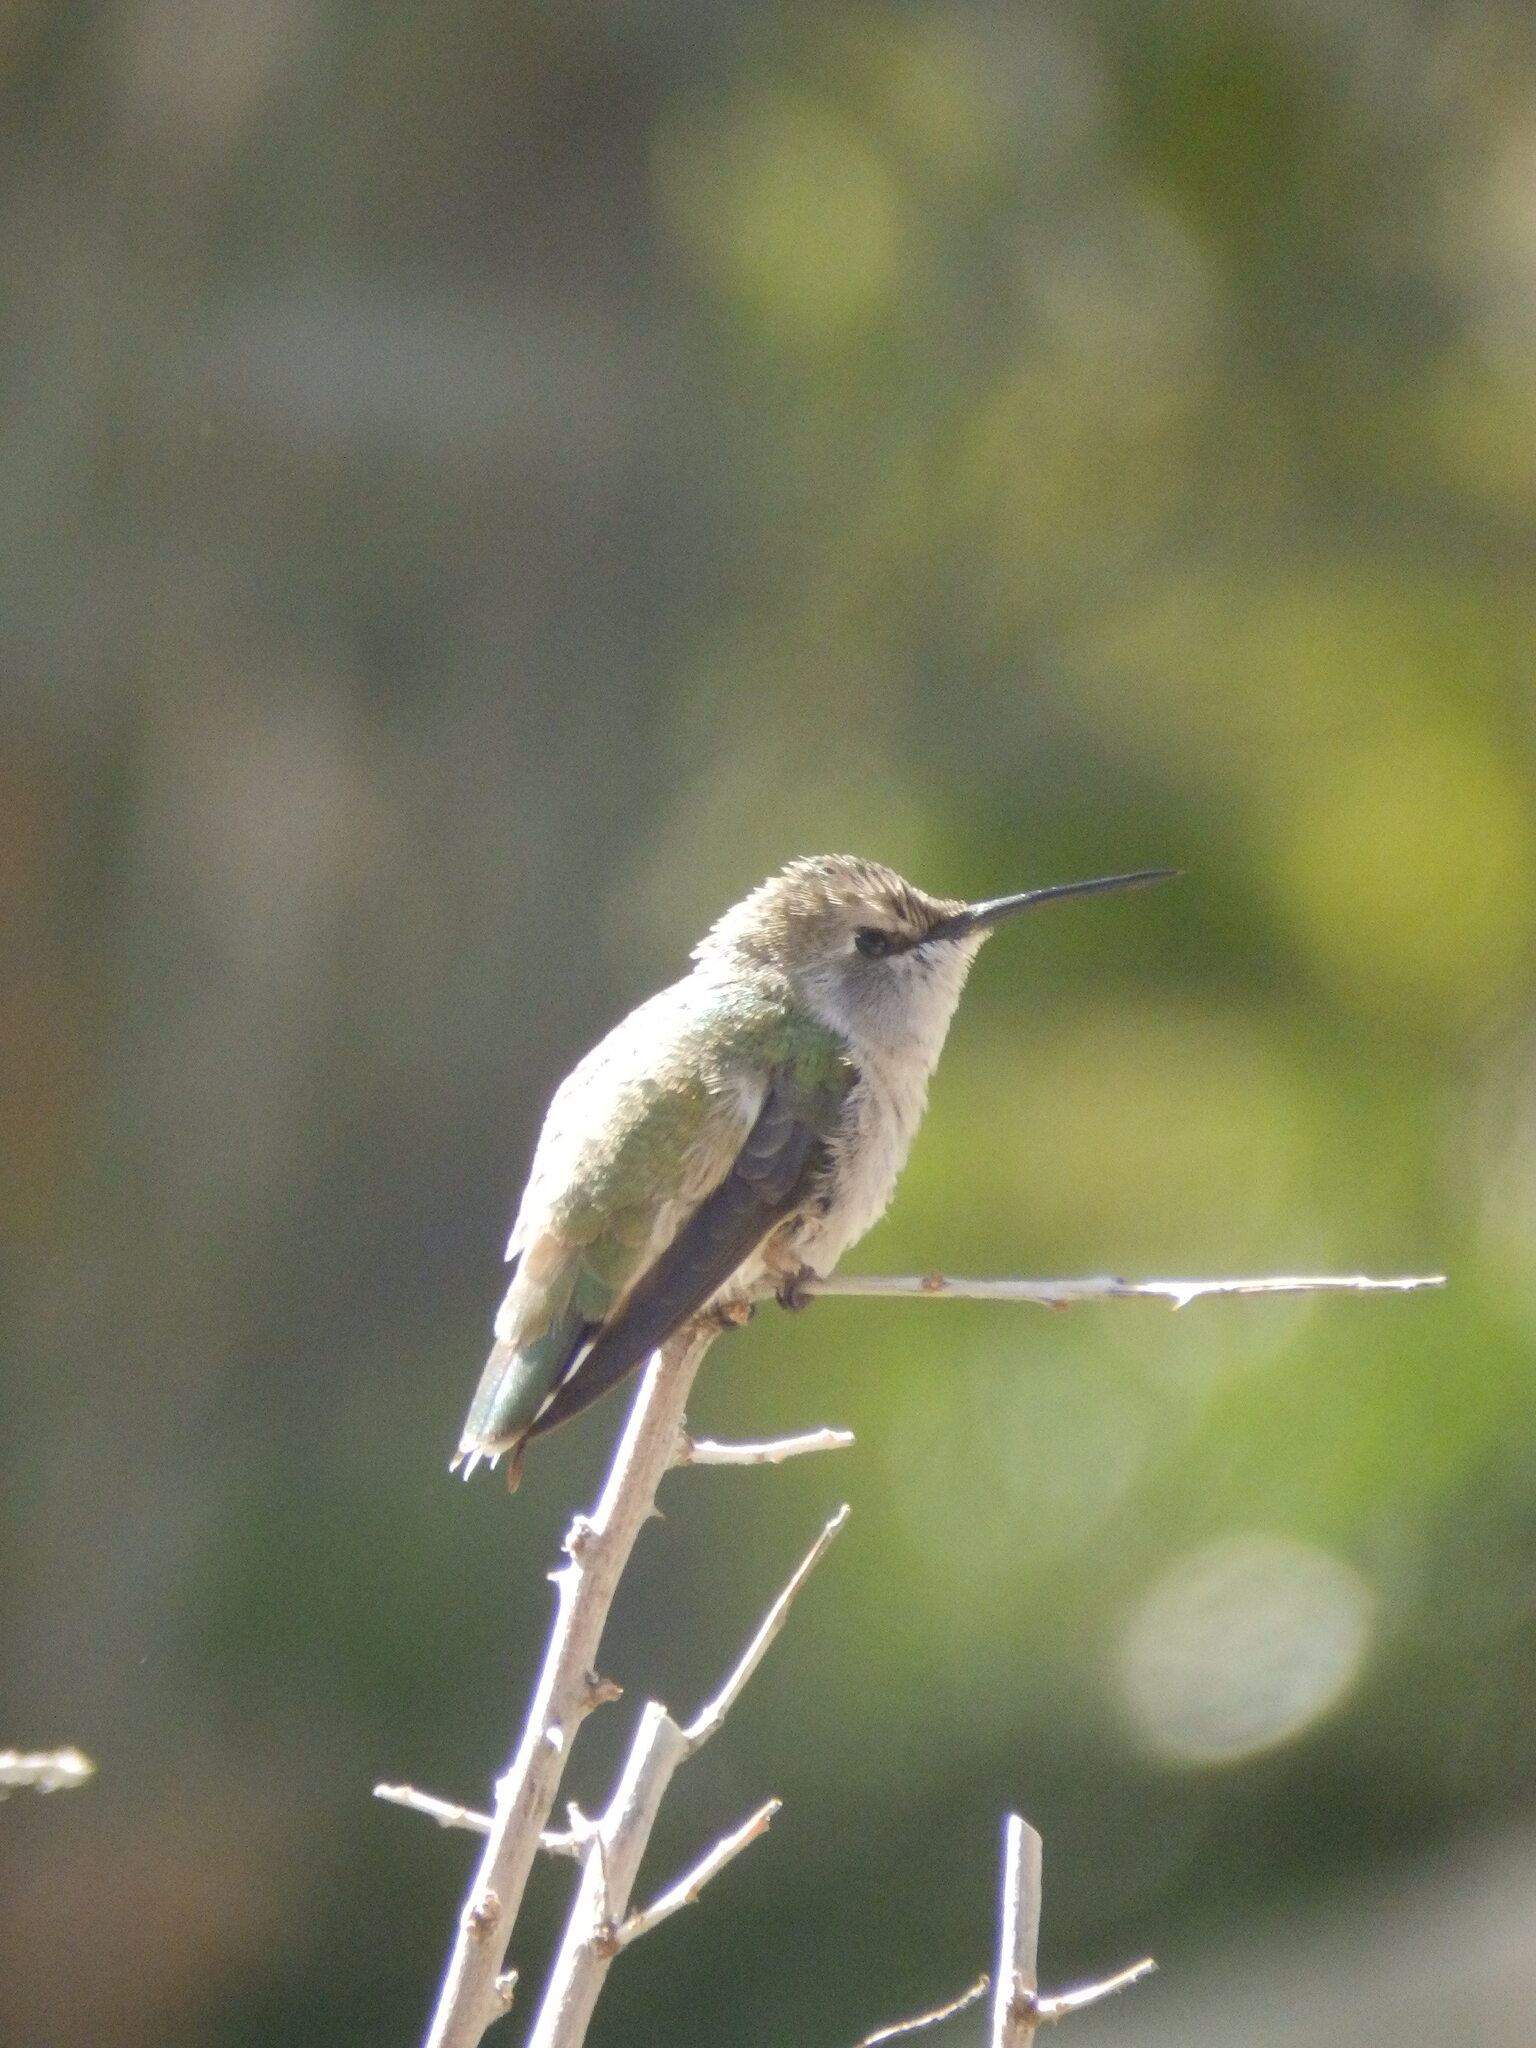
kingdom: Animalia
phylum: Chordata
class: Aves
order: Apodiformes
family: Trochilidae
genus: Calypte
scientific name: Calypte costae
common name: Costa's hummingbird
